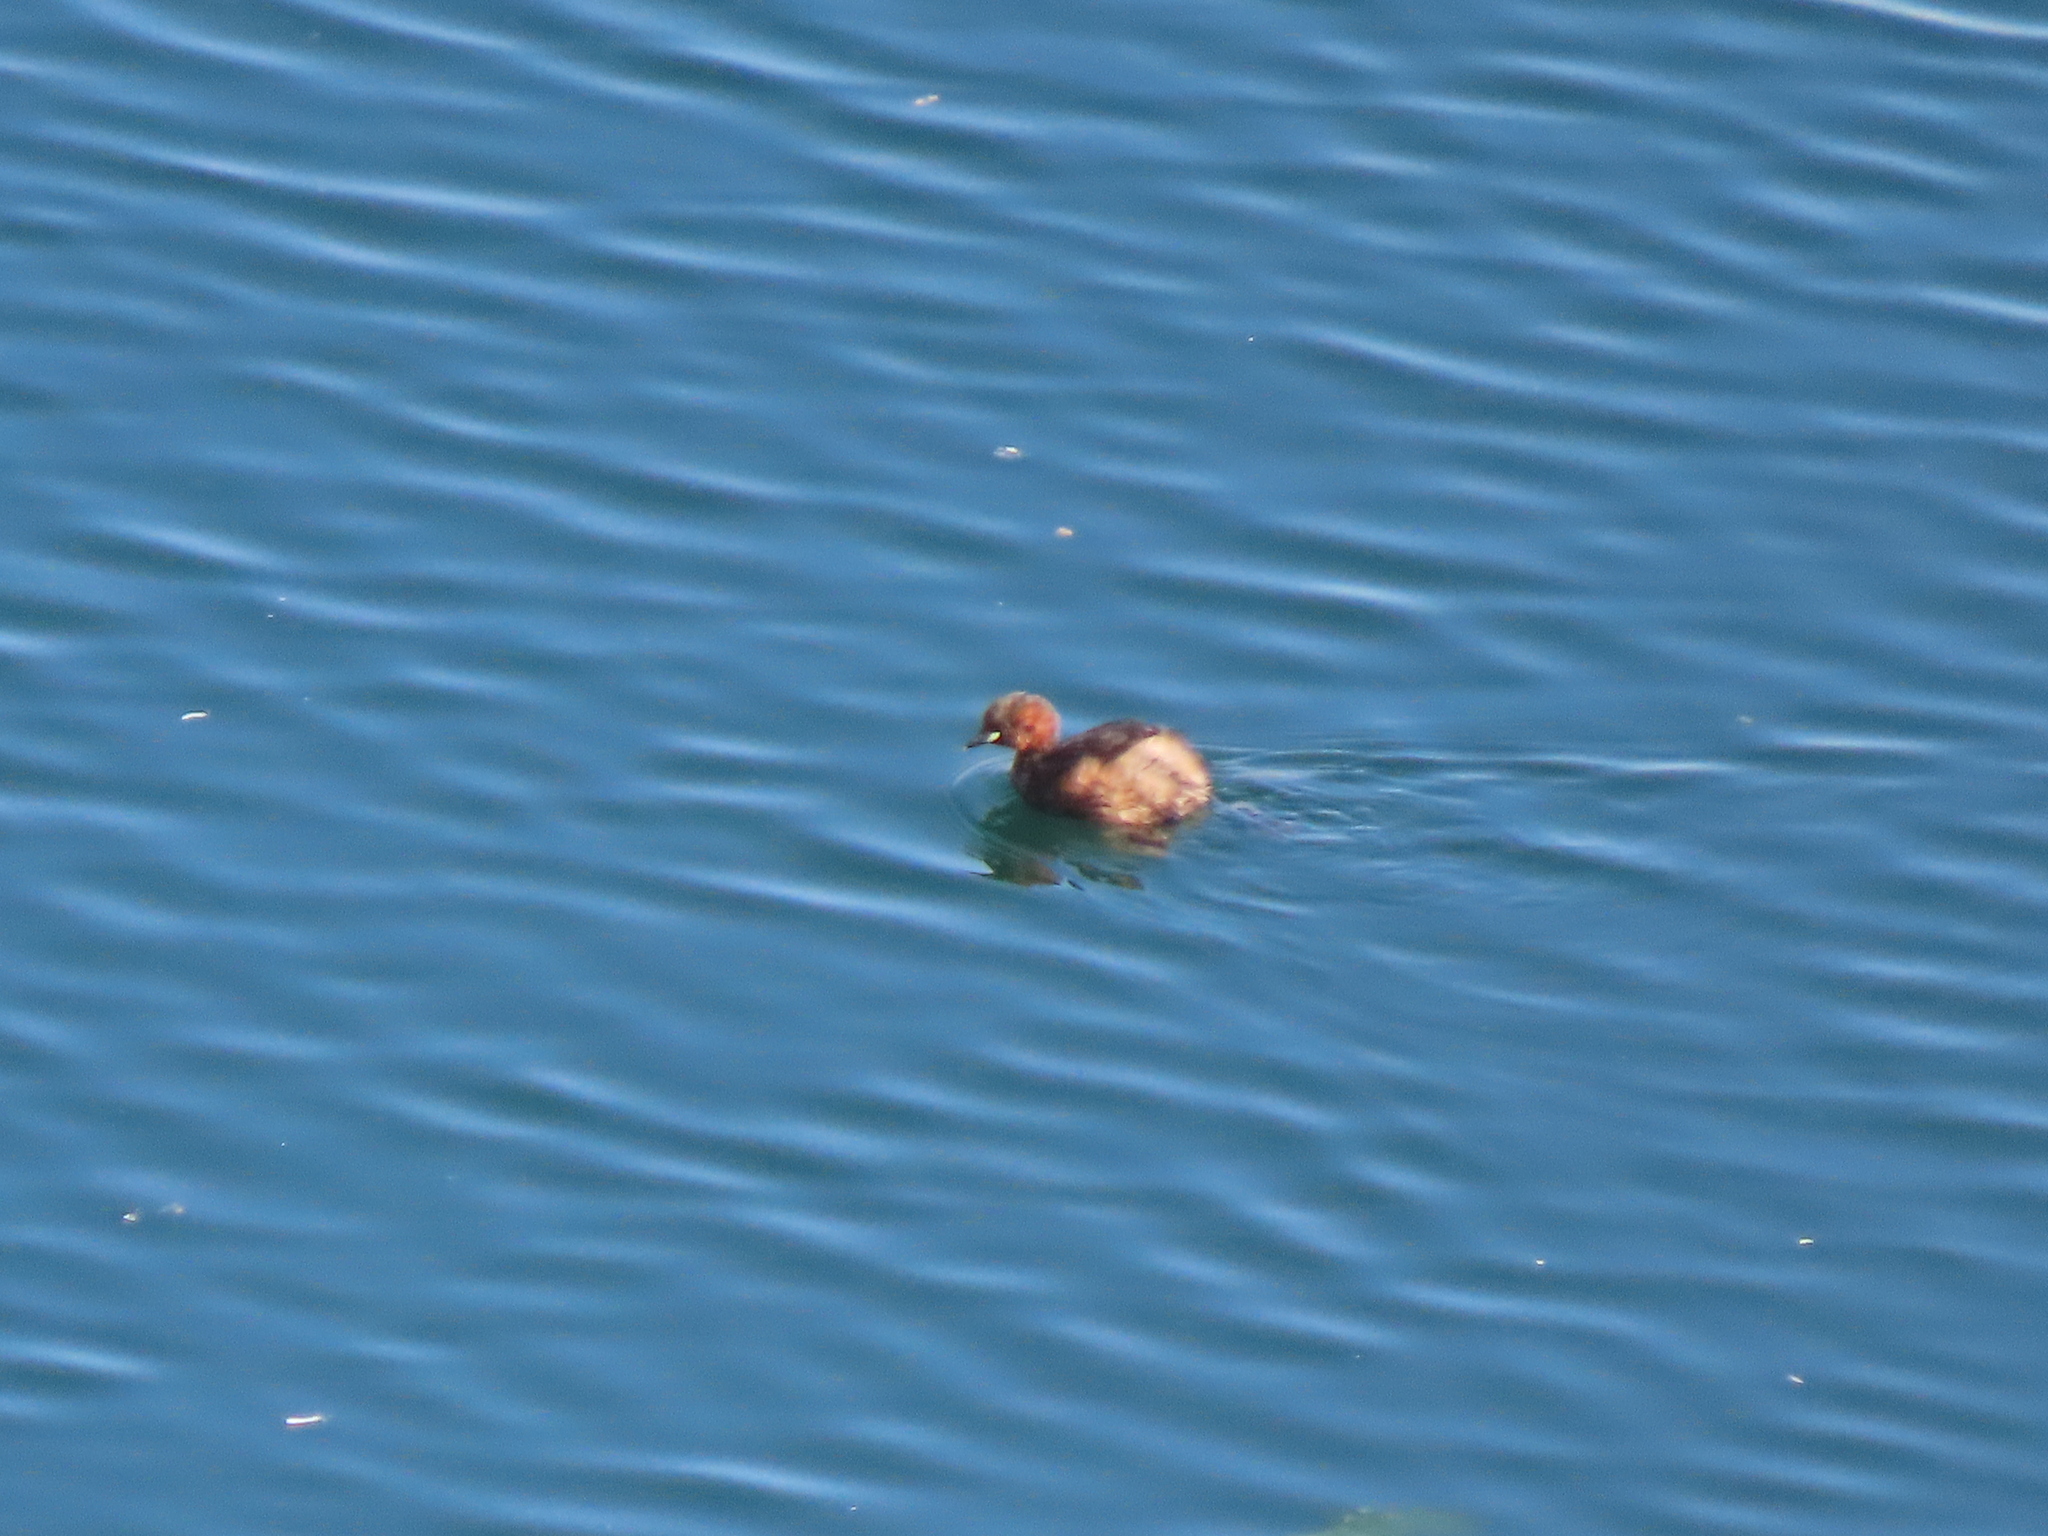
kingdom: Animalia
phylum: Chordata
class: Aves
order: Podicipediformes
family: Podicipedidae
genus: Tachybaptus
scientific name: Tachybaptus ruficollis
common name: Little grebe
